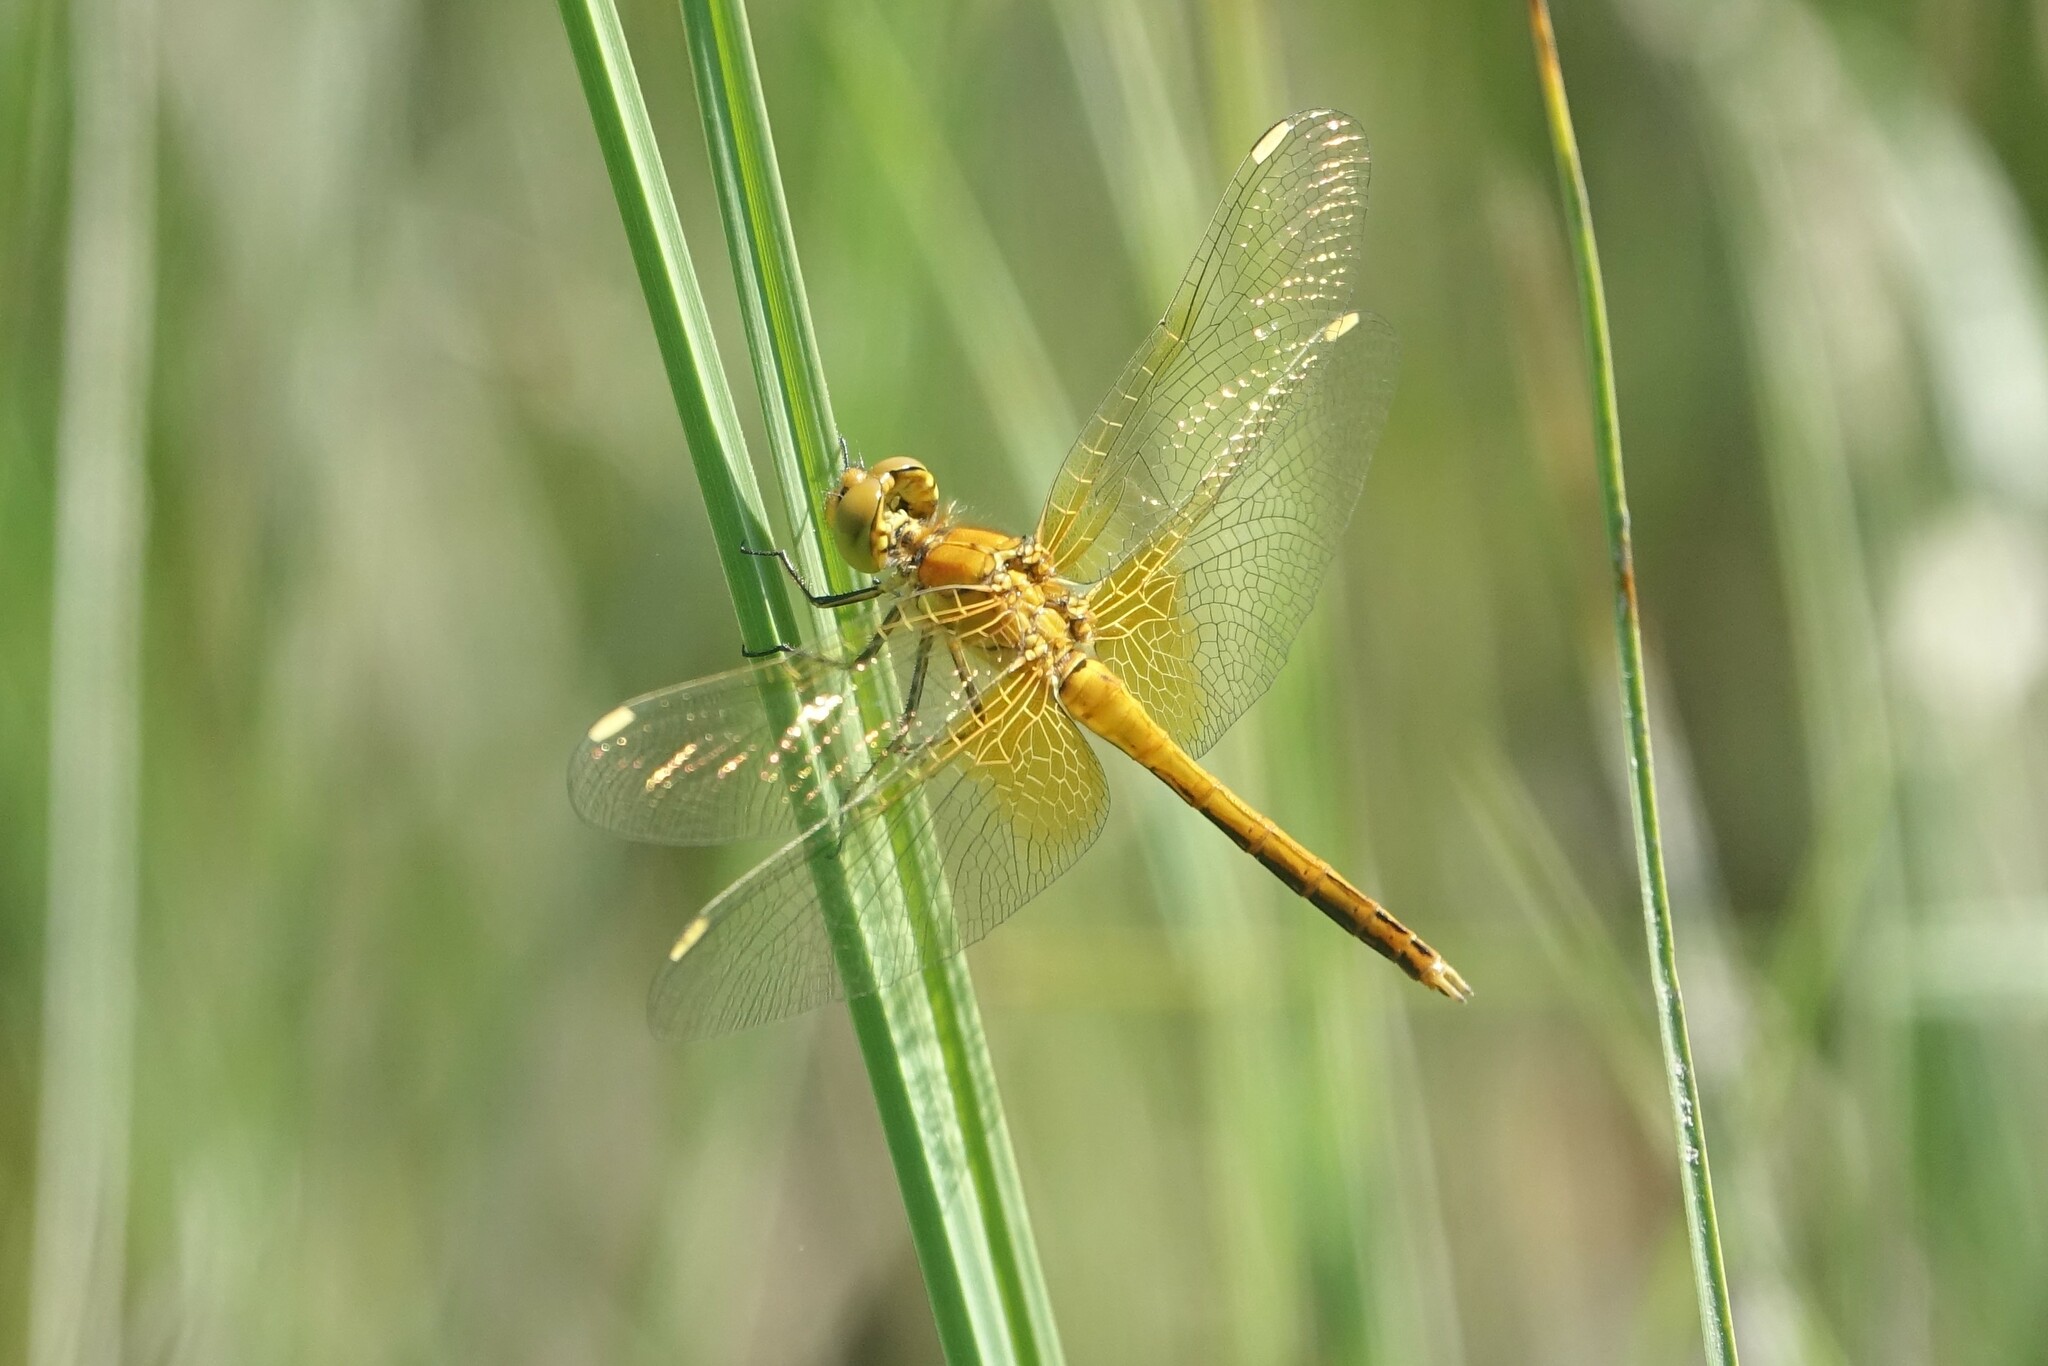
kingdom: Animalia
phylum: Arthropoda
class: Insecta
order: Odonata
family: Libellulidae
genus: Sympetrum
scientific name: Sympetrum flaveolum
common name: Yellow-winged darter
